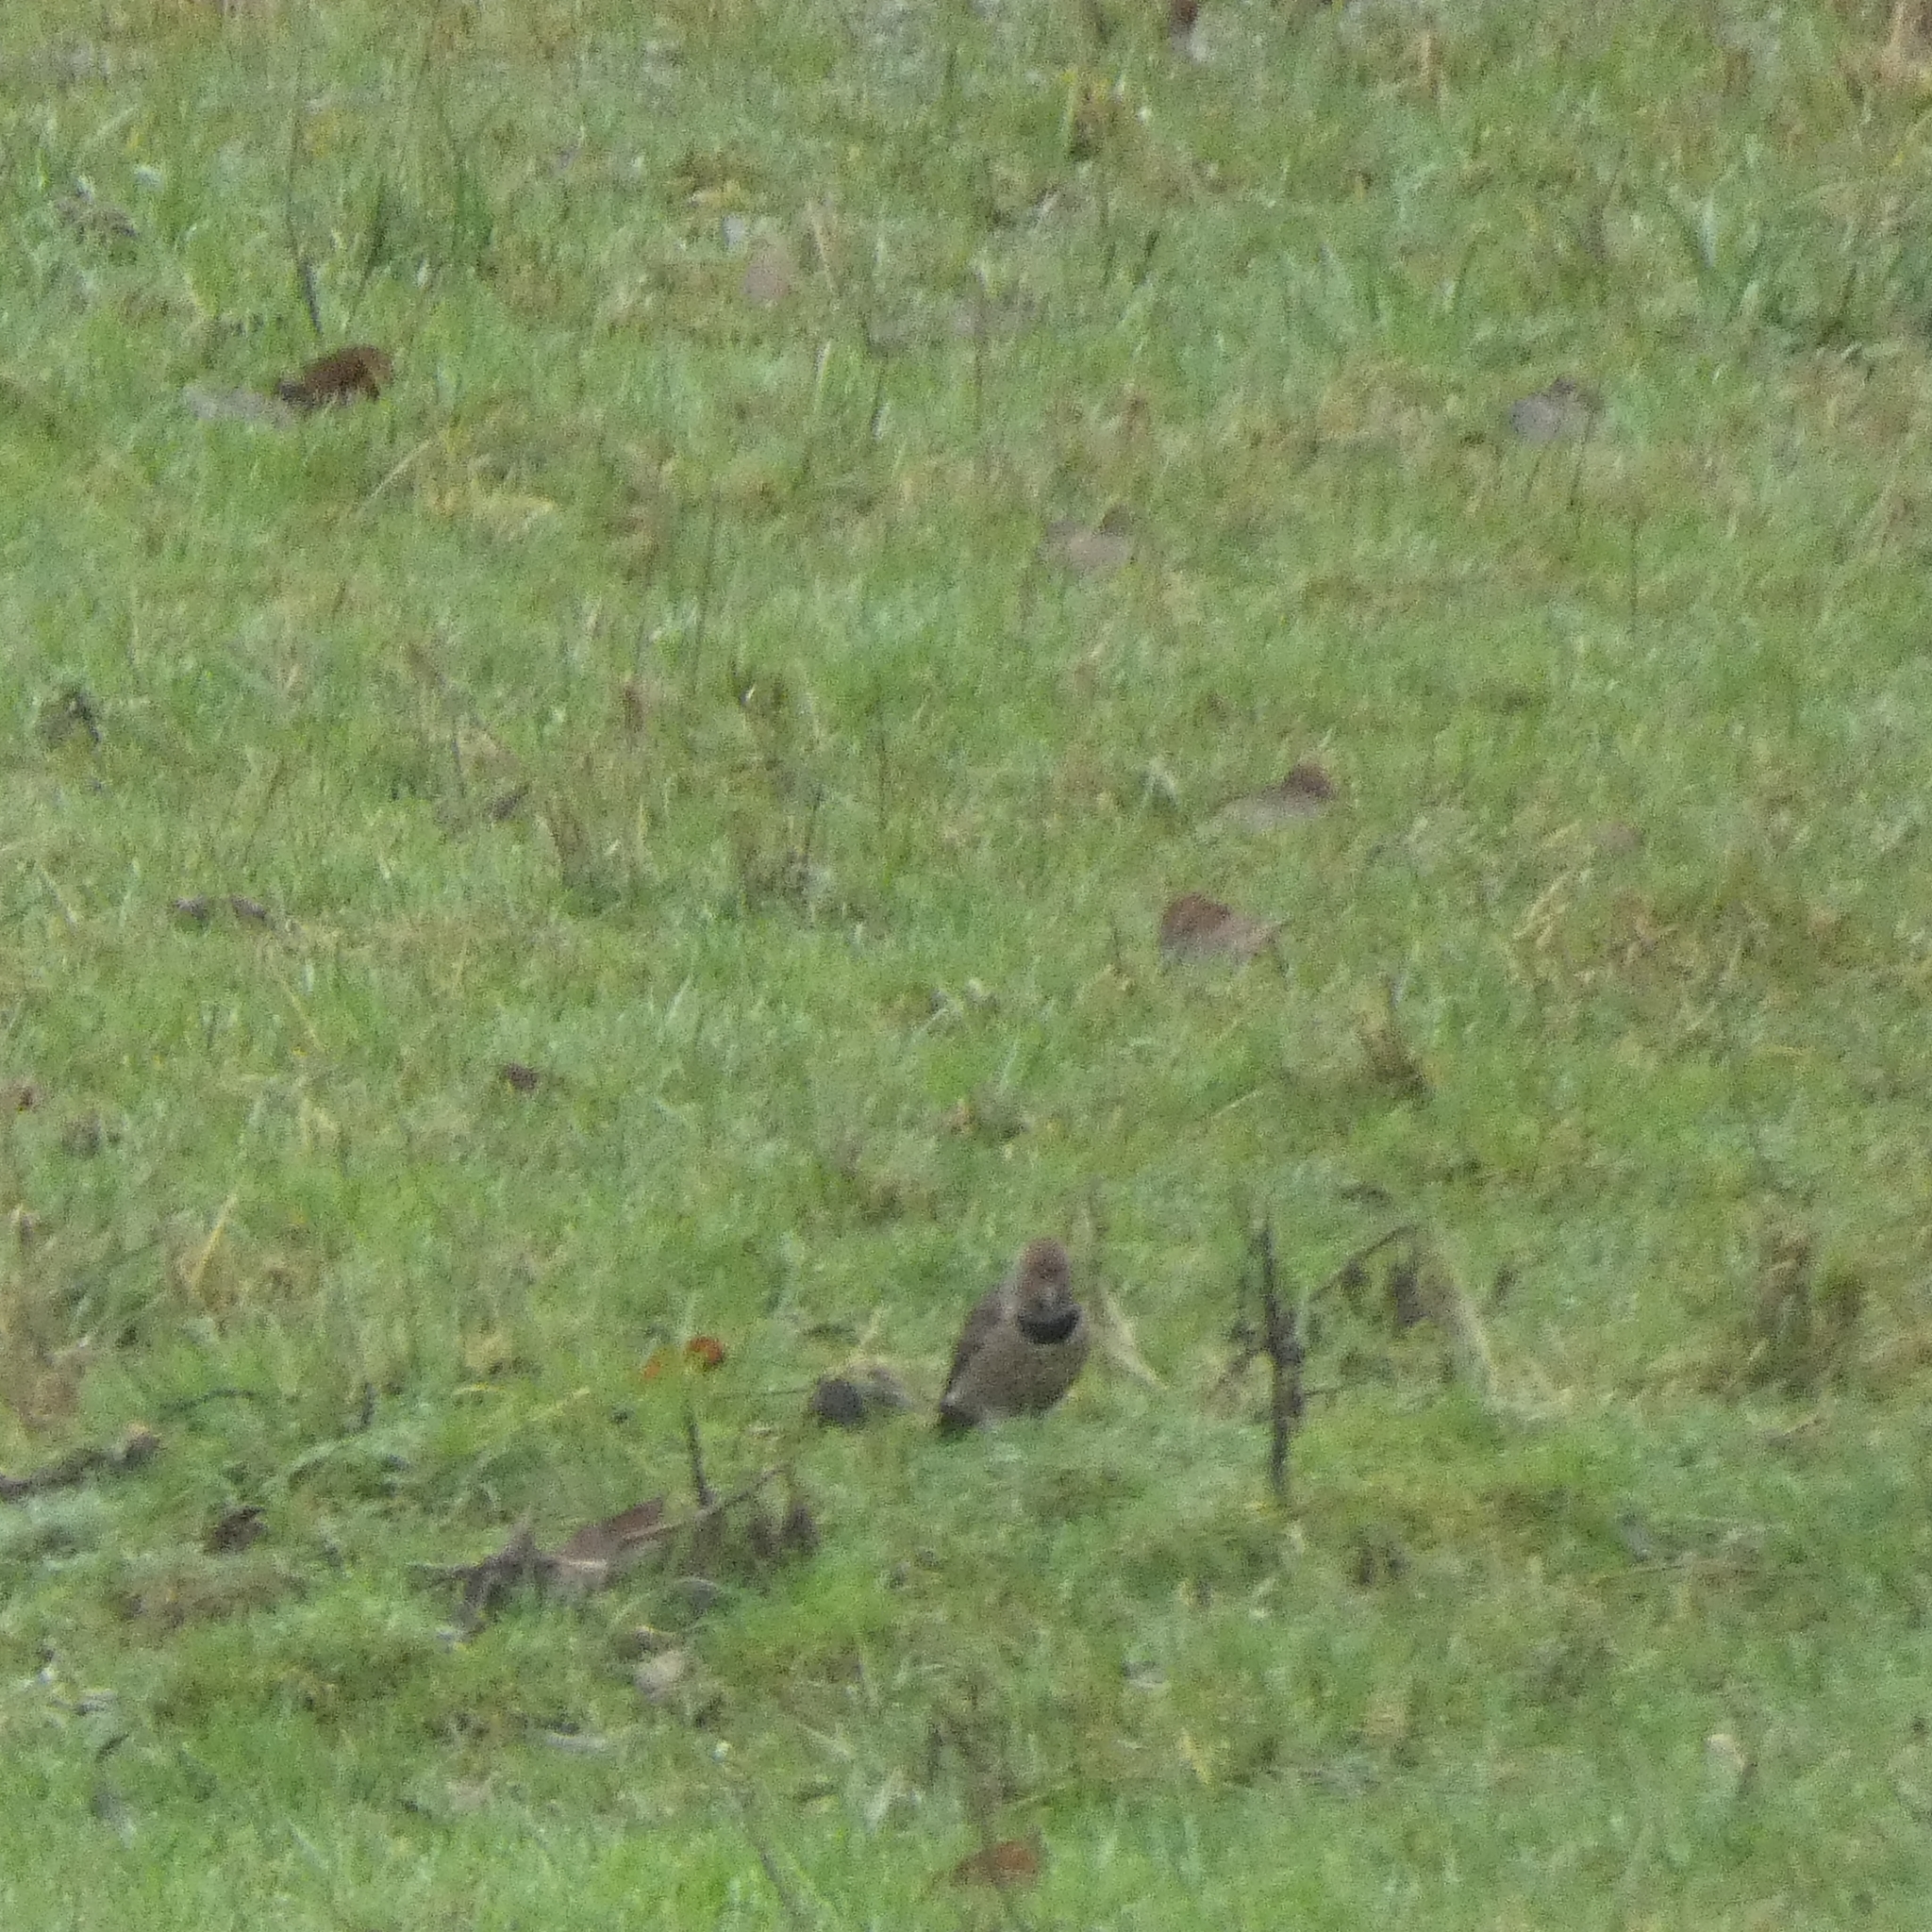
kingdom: Animalia
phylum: Chordata
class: Aves
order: Piciformes
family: Picidae
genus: Colaptes
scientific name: Colaptes auratus
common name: Northern flicker
